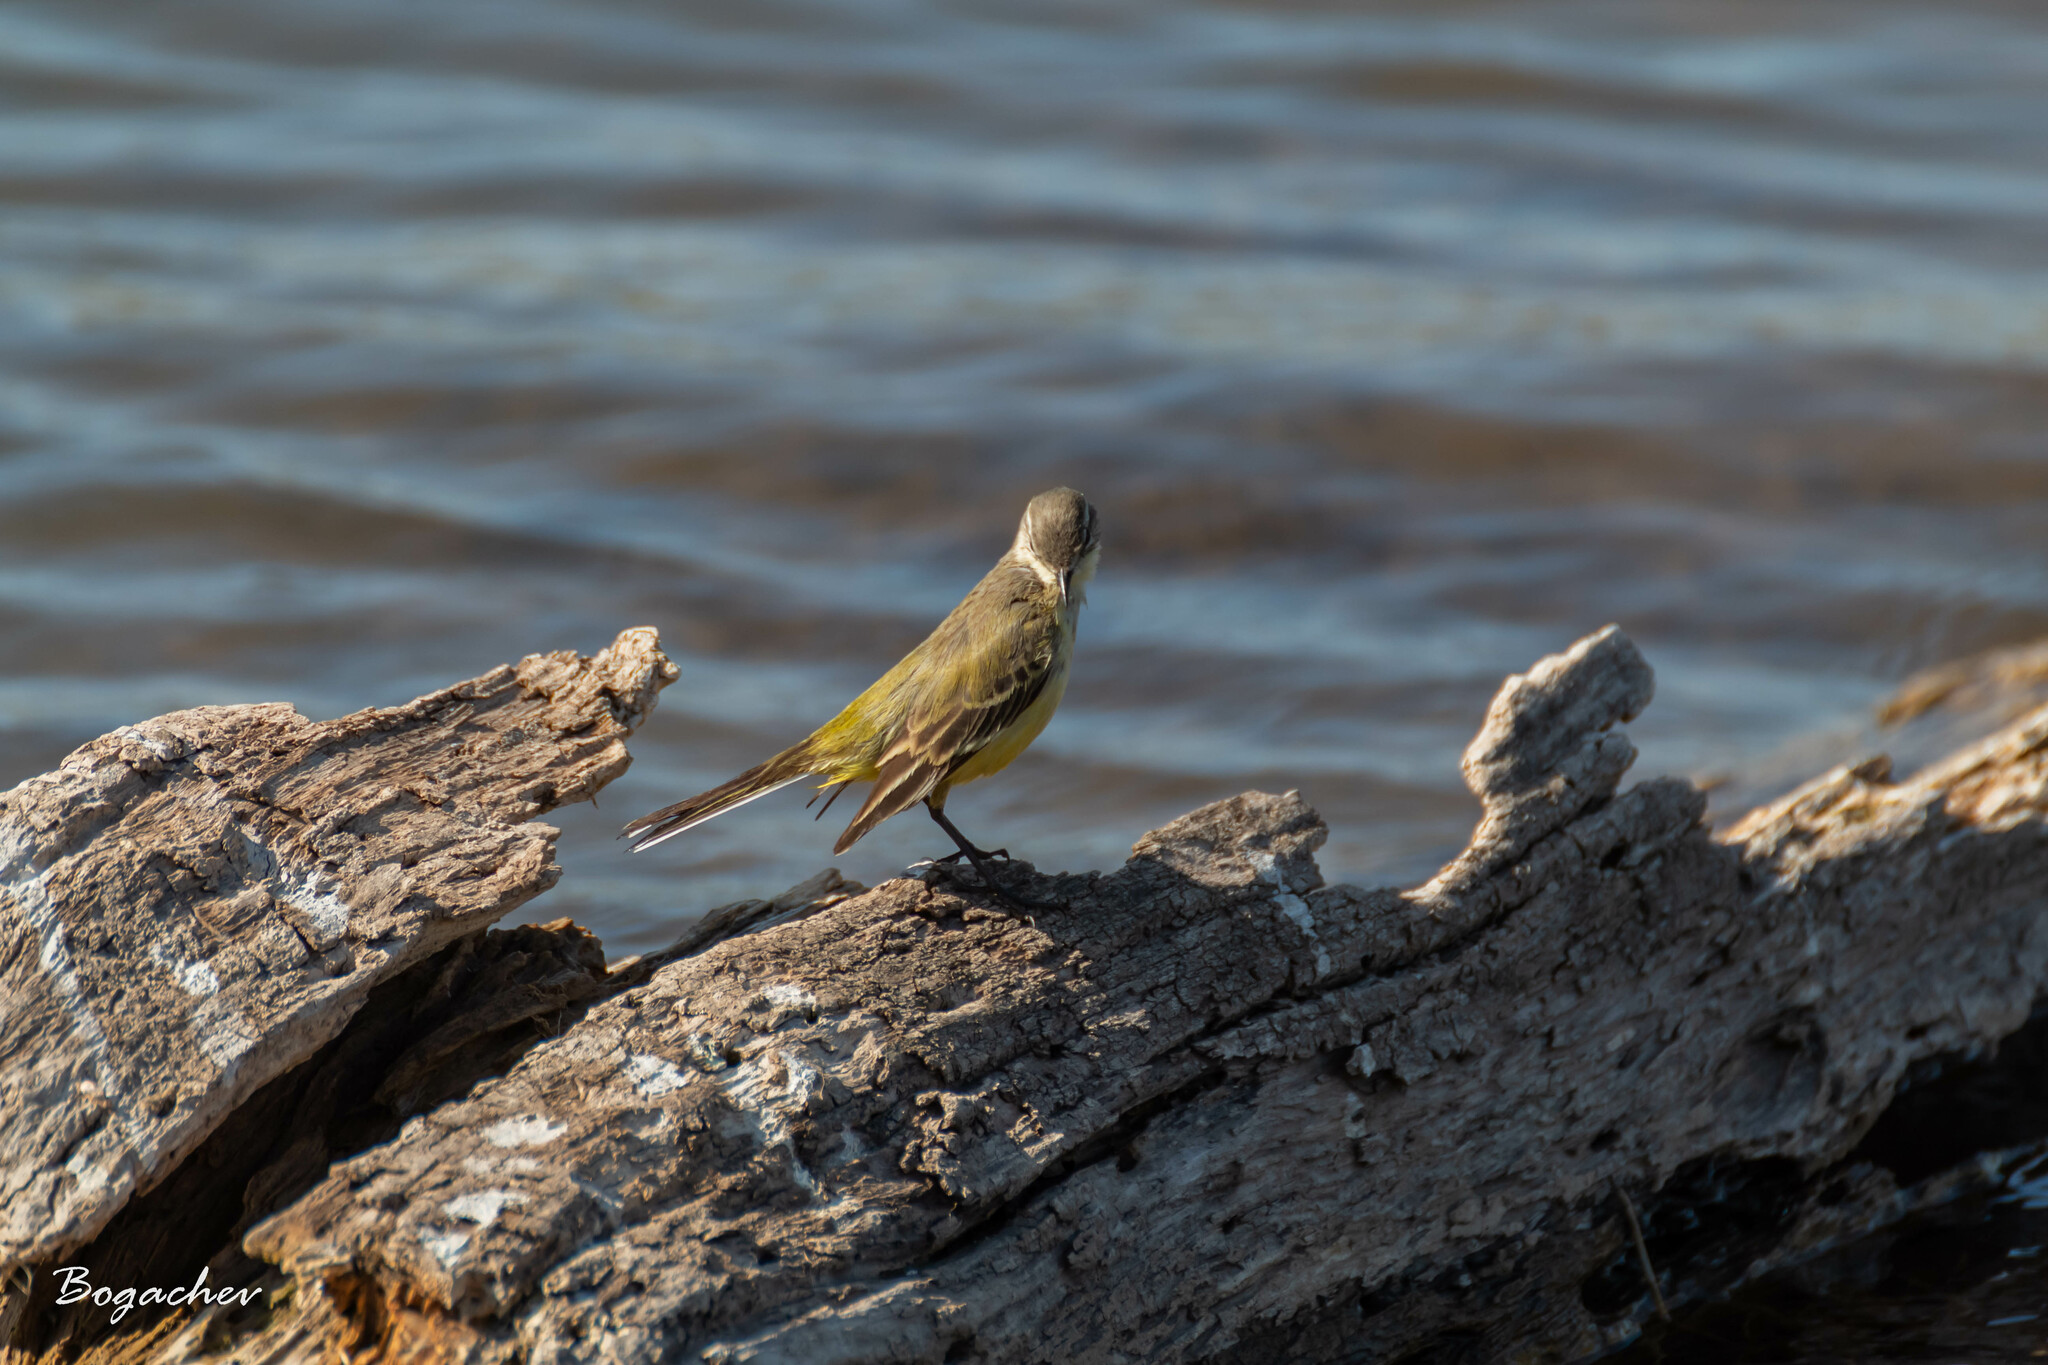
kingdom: Animalia
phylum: Chordata
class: Aves
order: Passeriformes
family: Motacillidae
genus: Motacilla
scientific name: Motacilla flava
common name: Western yellow wagtail
